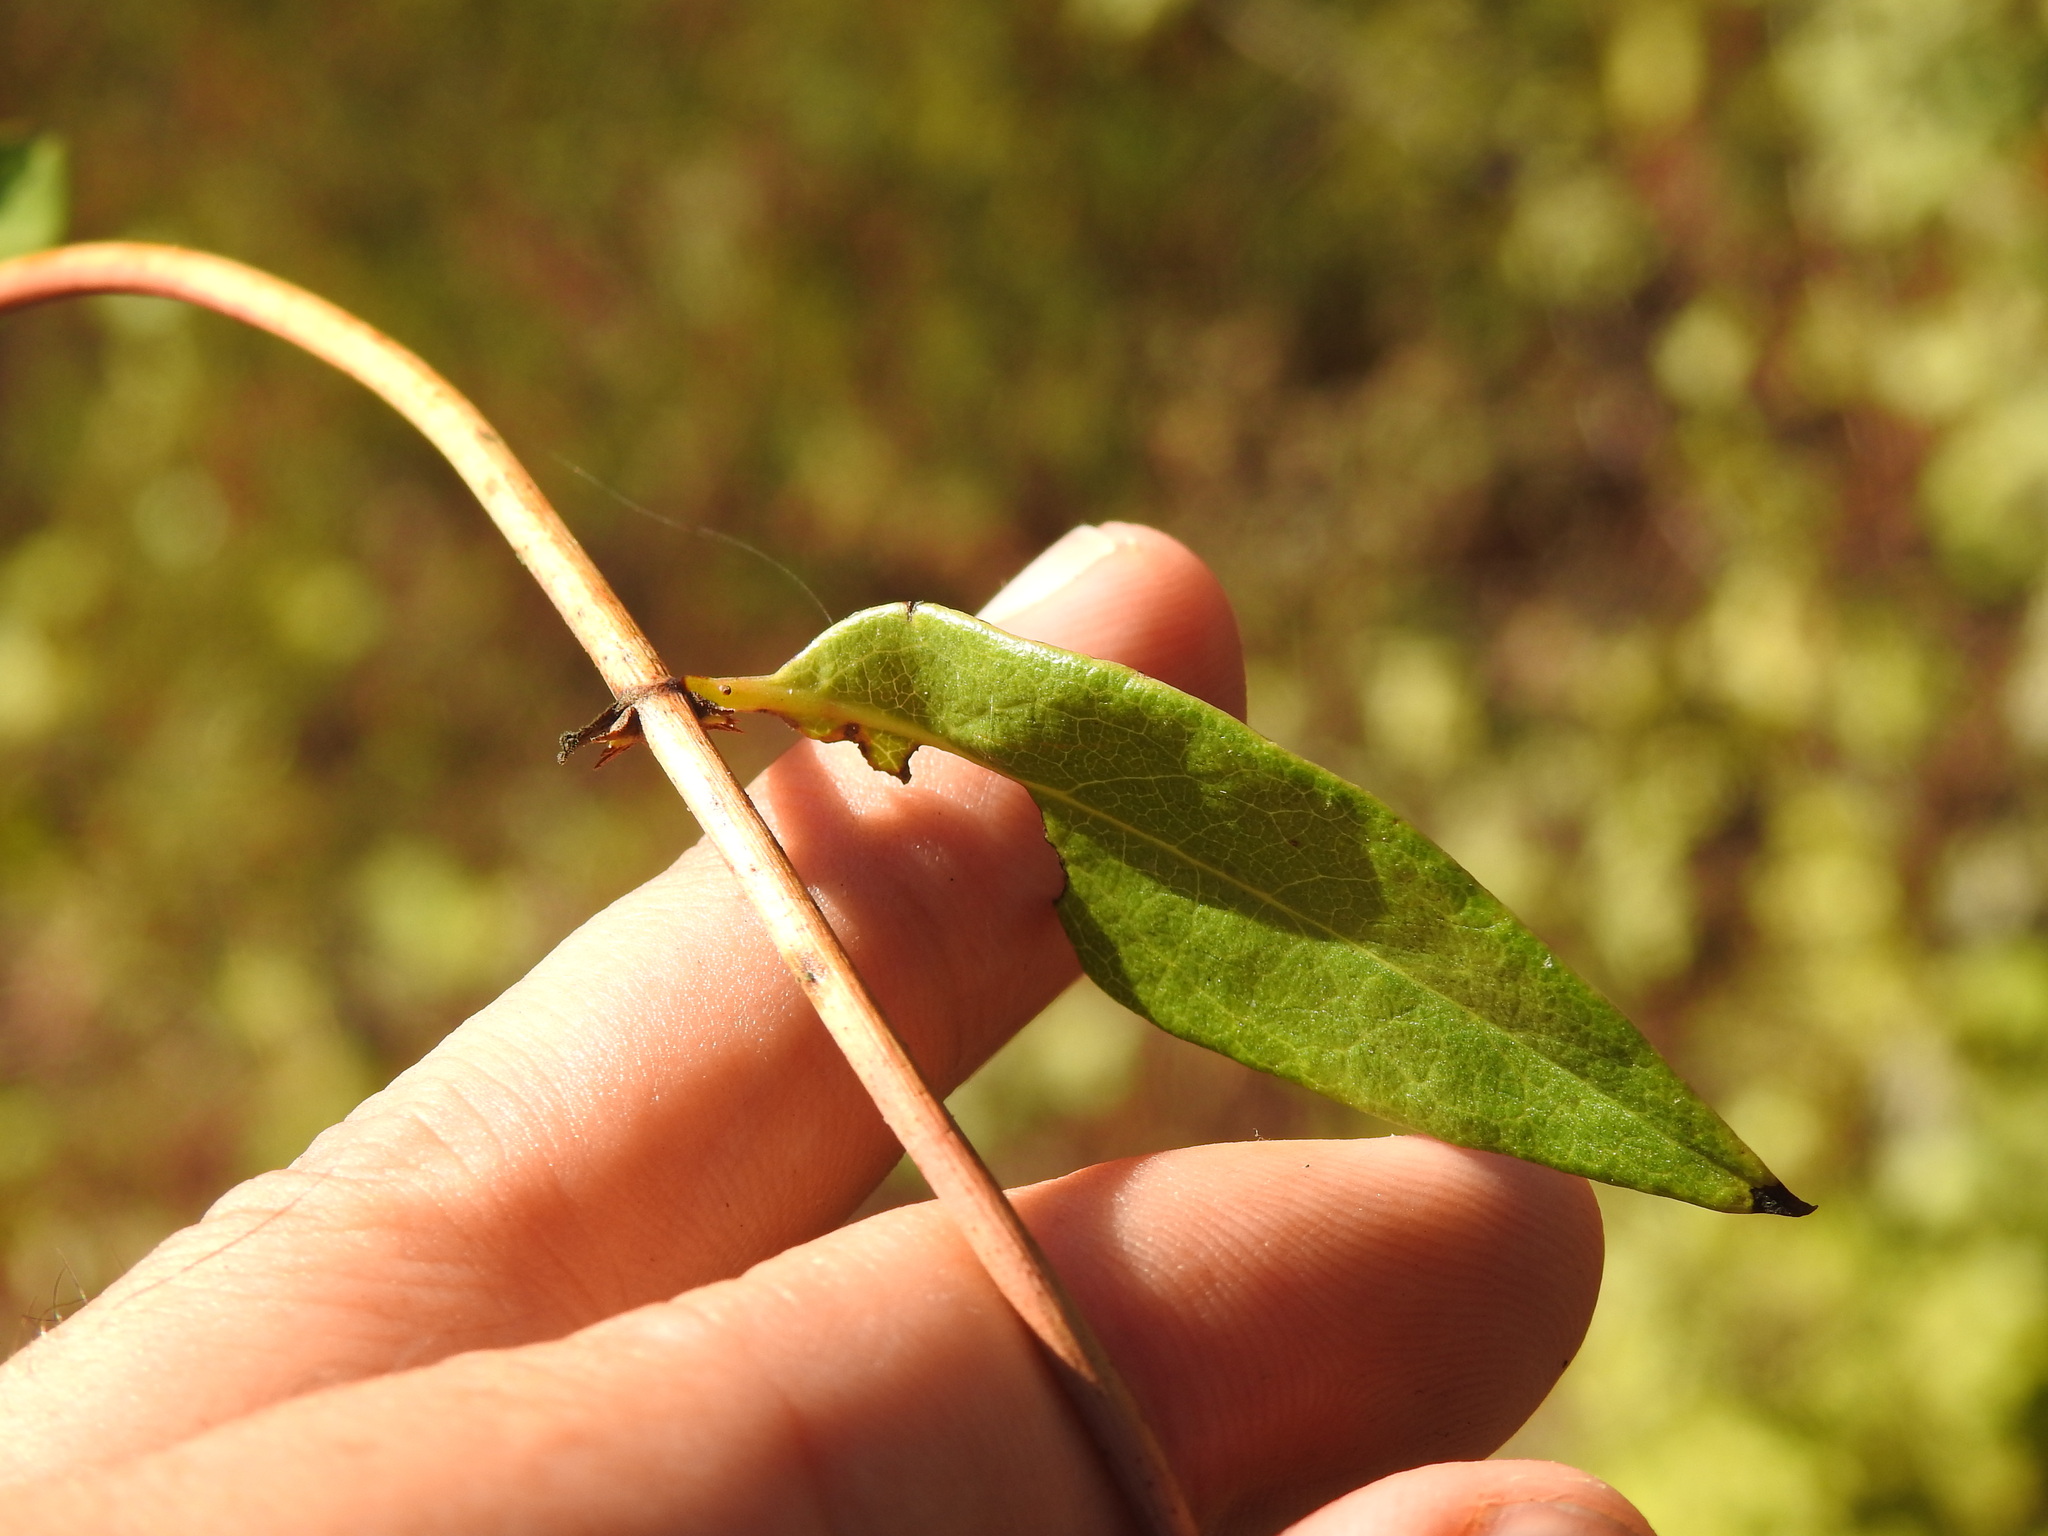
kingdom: Plantae
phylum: Tracheophyta
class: Magnoliopsida
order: Dipsacales
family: Caprifoliaceae
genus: Lonicera
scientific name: Lonicera periclymenum
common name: European honeysuckle
